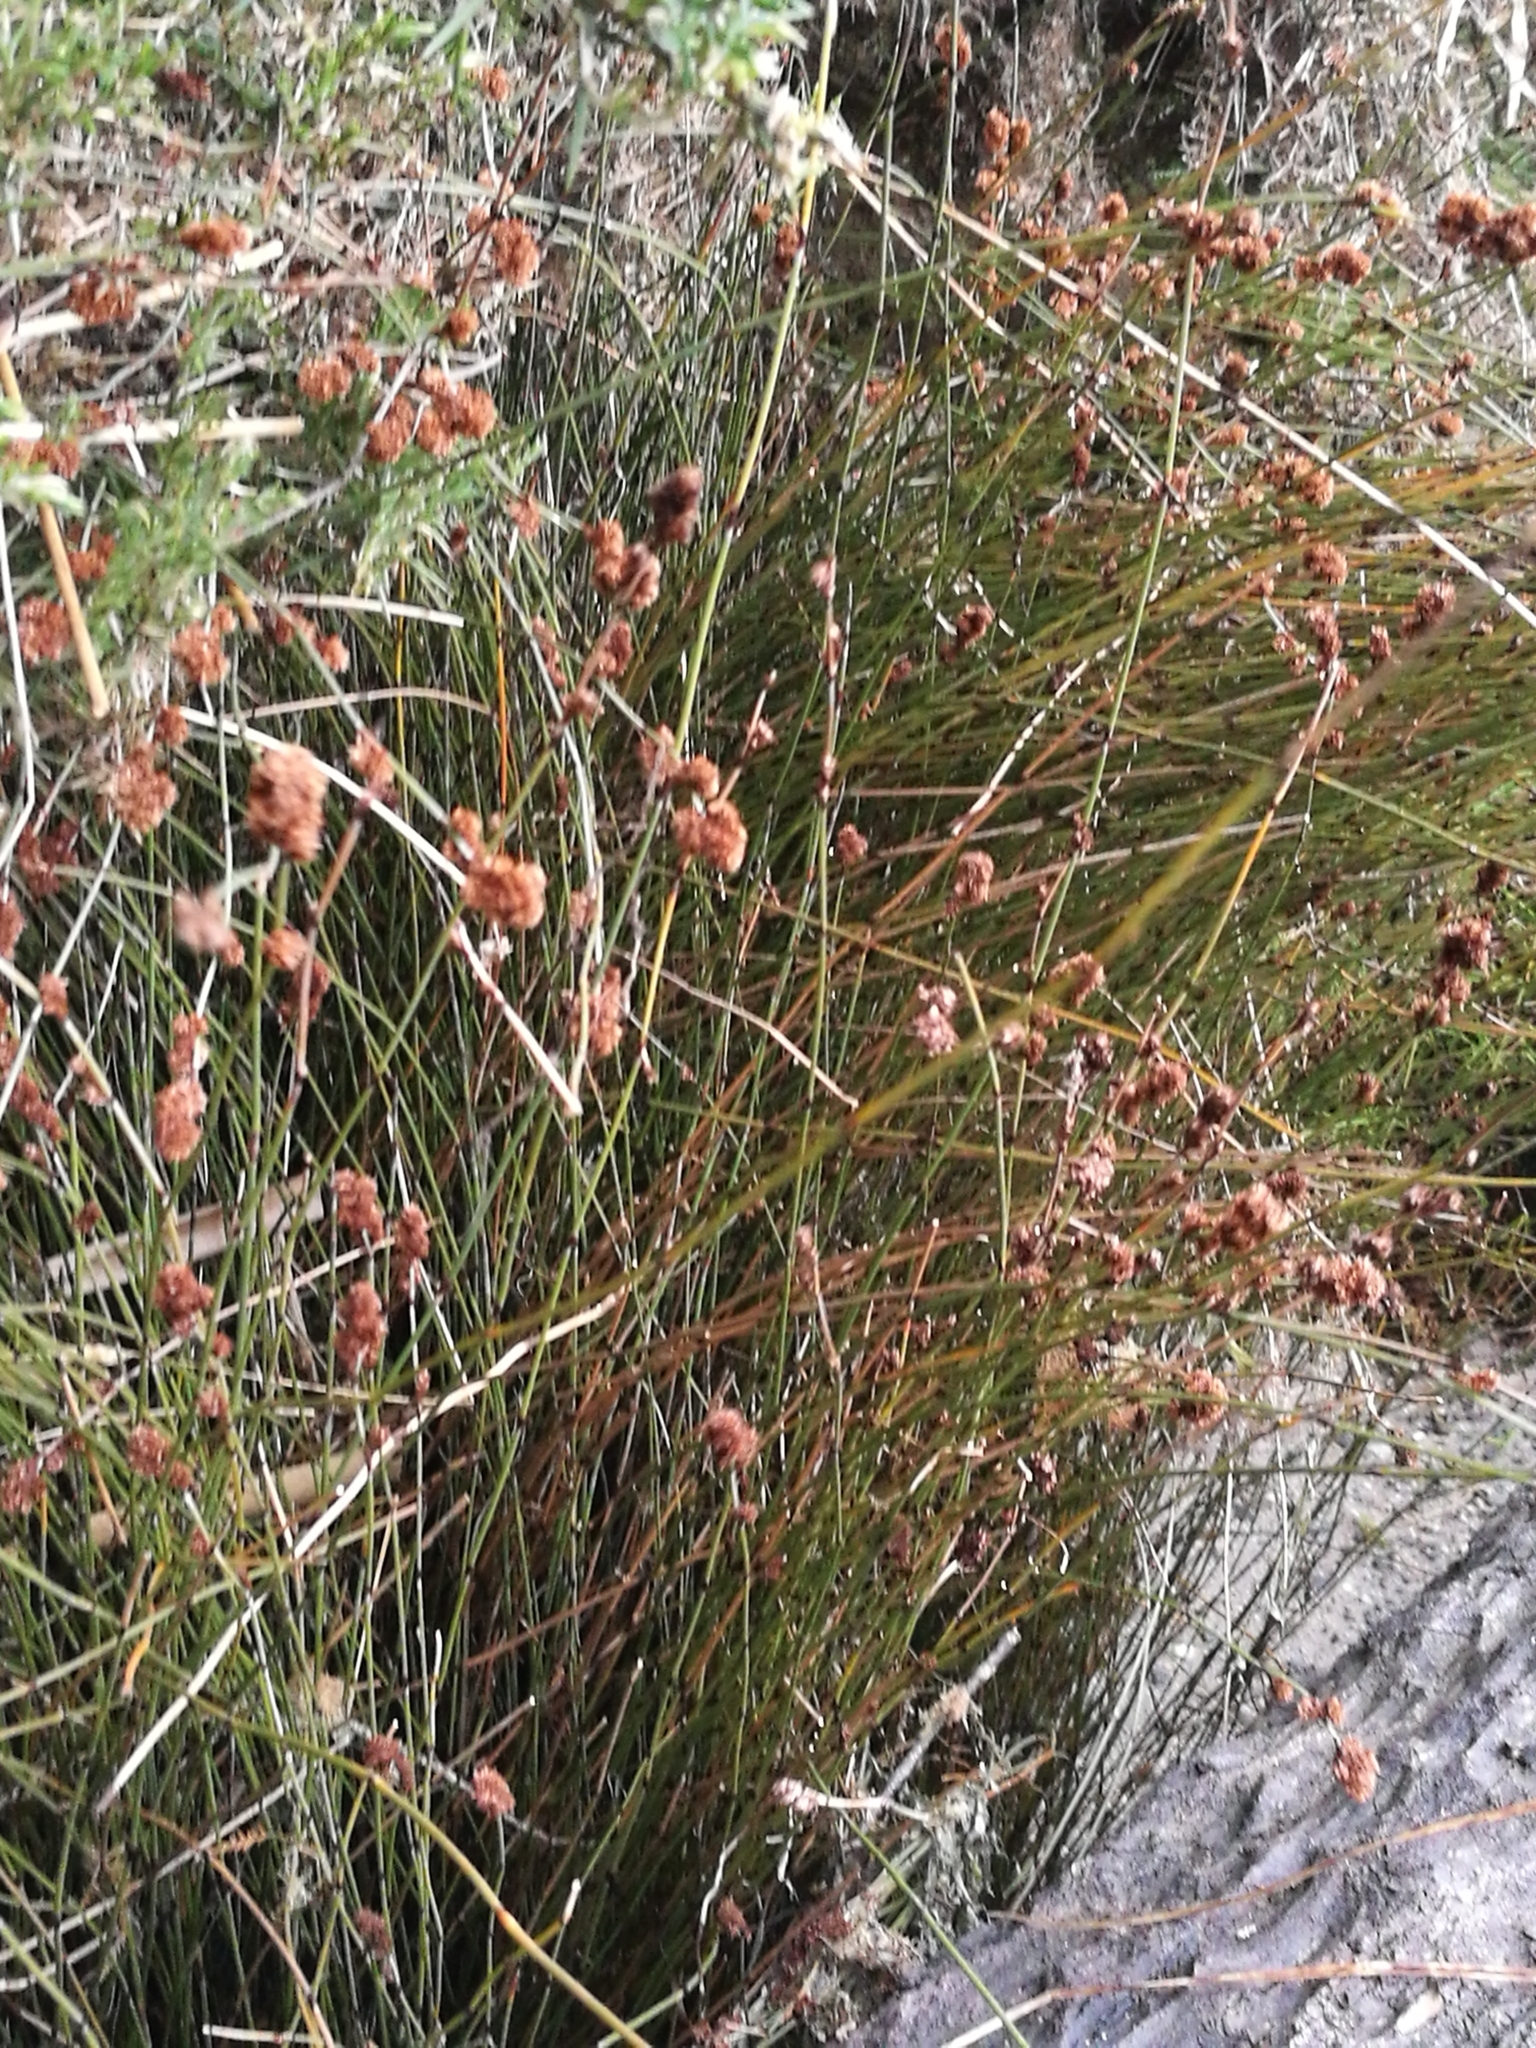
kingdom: Plantae
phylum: Tracheophyta
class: Liliopsida
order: Poales
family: Restionaceae
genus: Apodasmia
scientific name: Apodasmia similis
